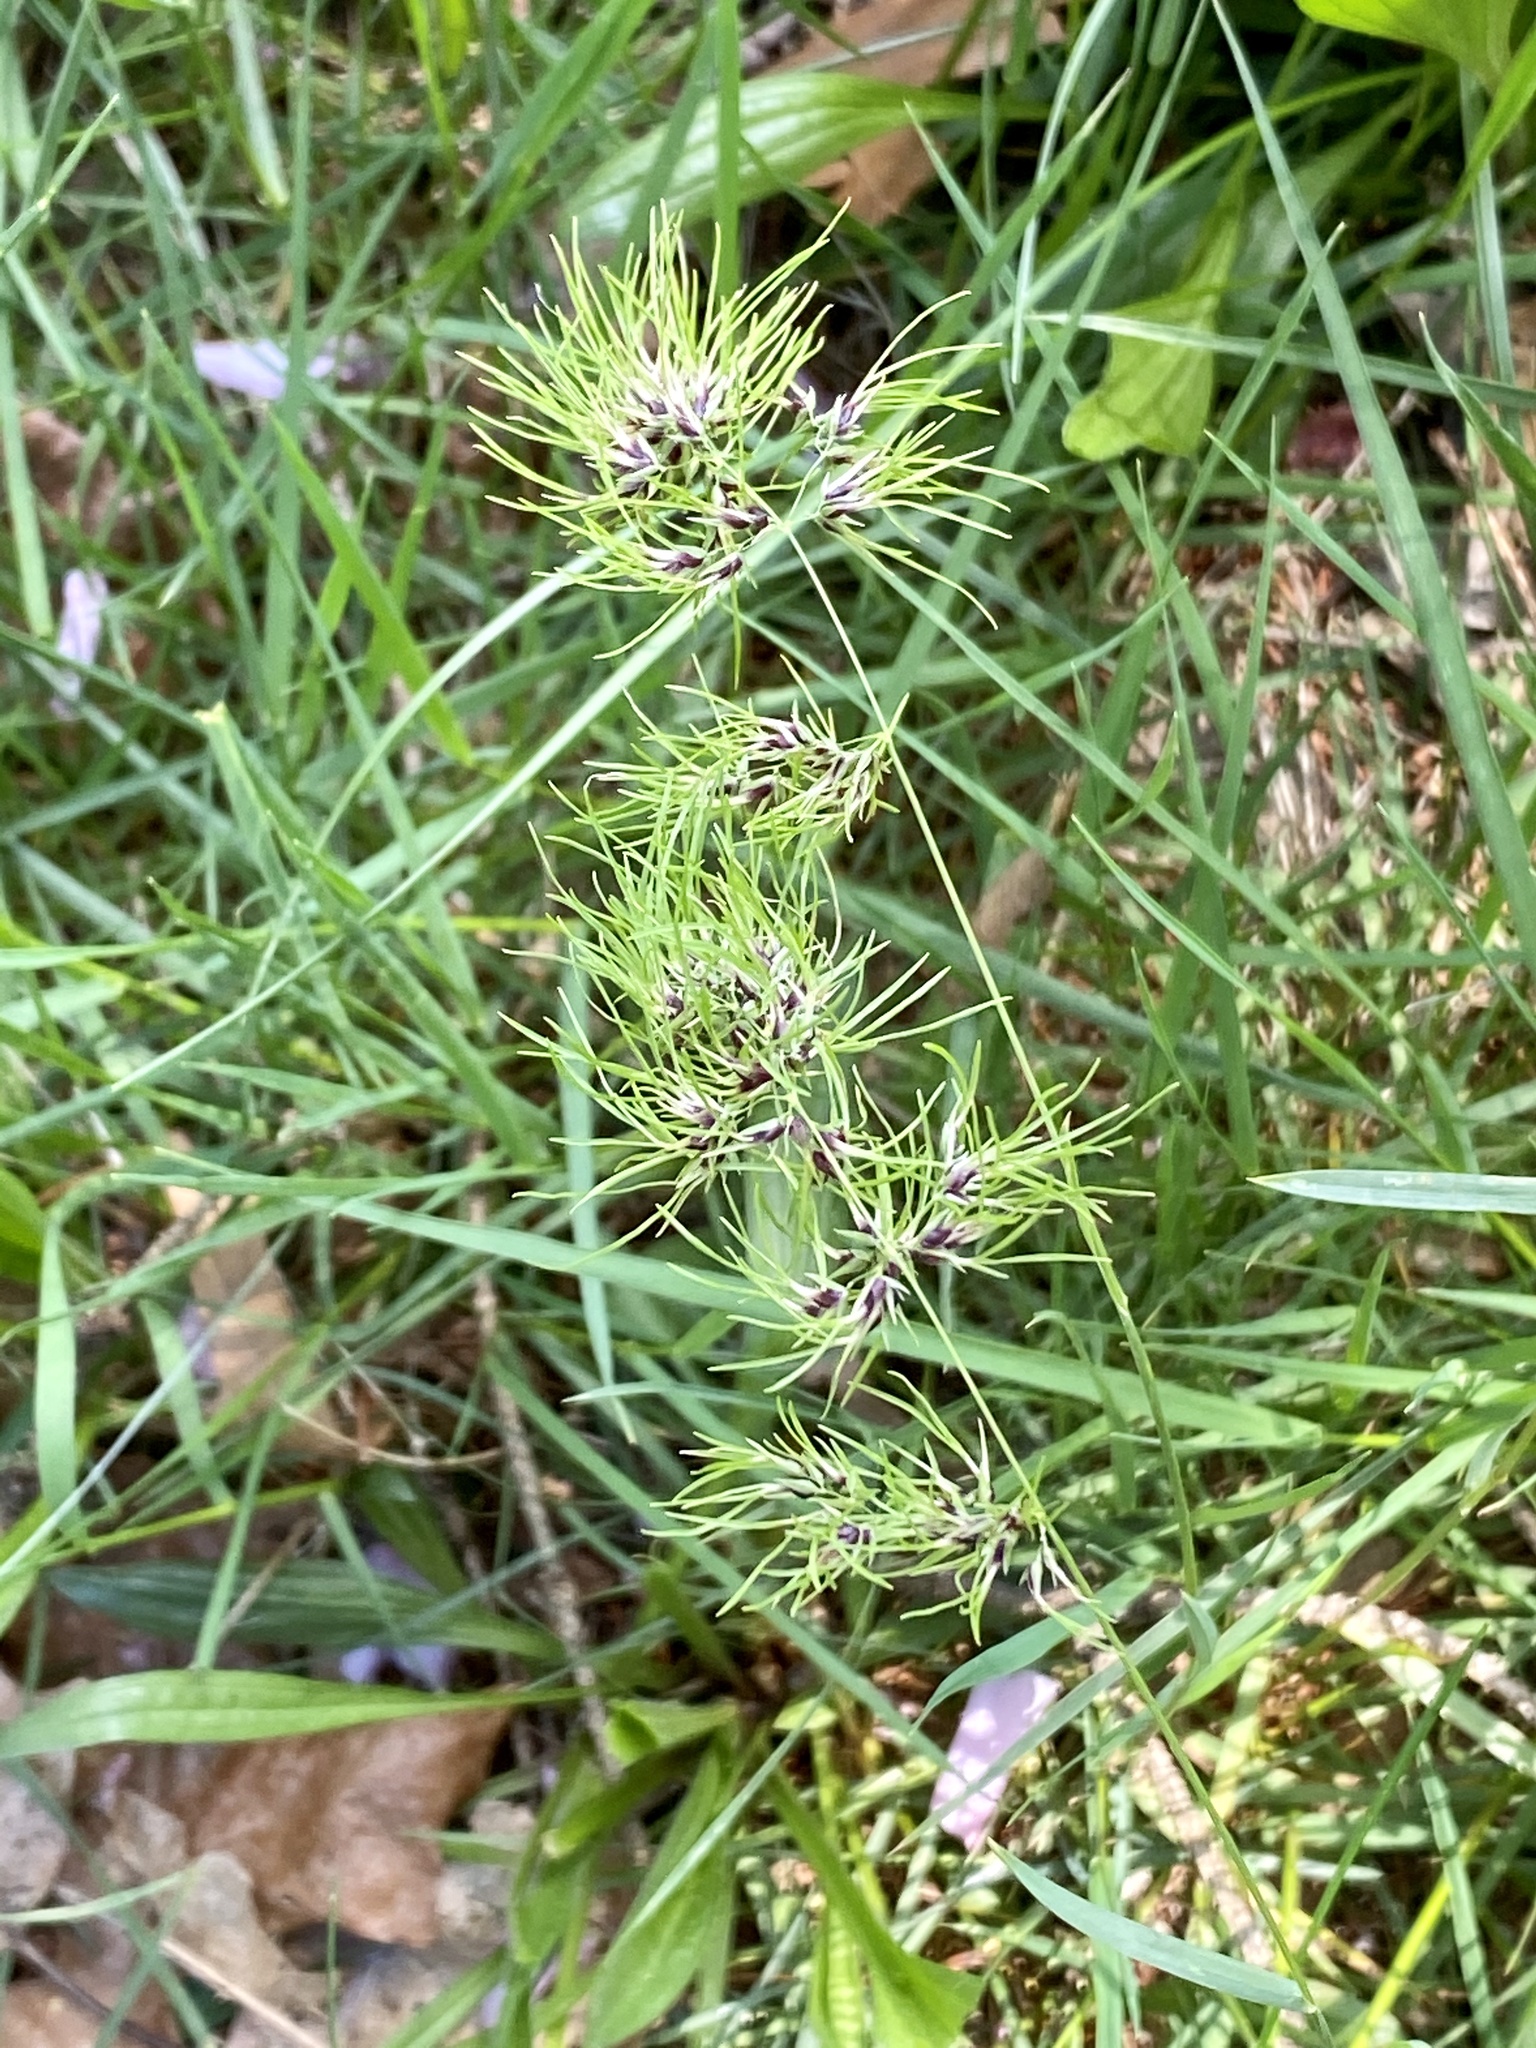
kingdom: Plantae
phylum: Tracheophyta
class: Liliopsida
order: Poales
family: Poaceae
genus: Poa
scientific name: Poa bulbosa
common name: Bulbous bluegrass
